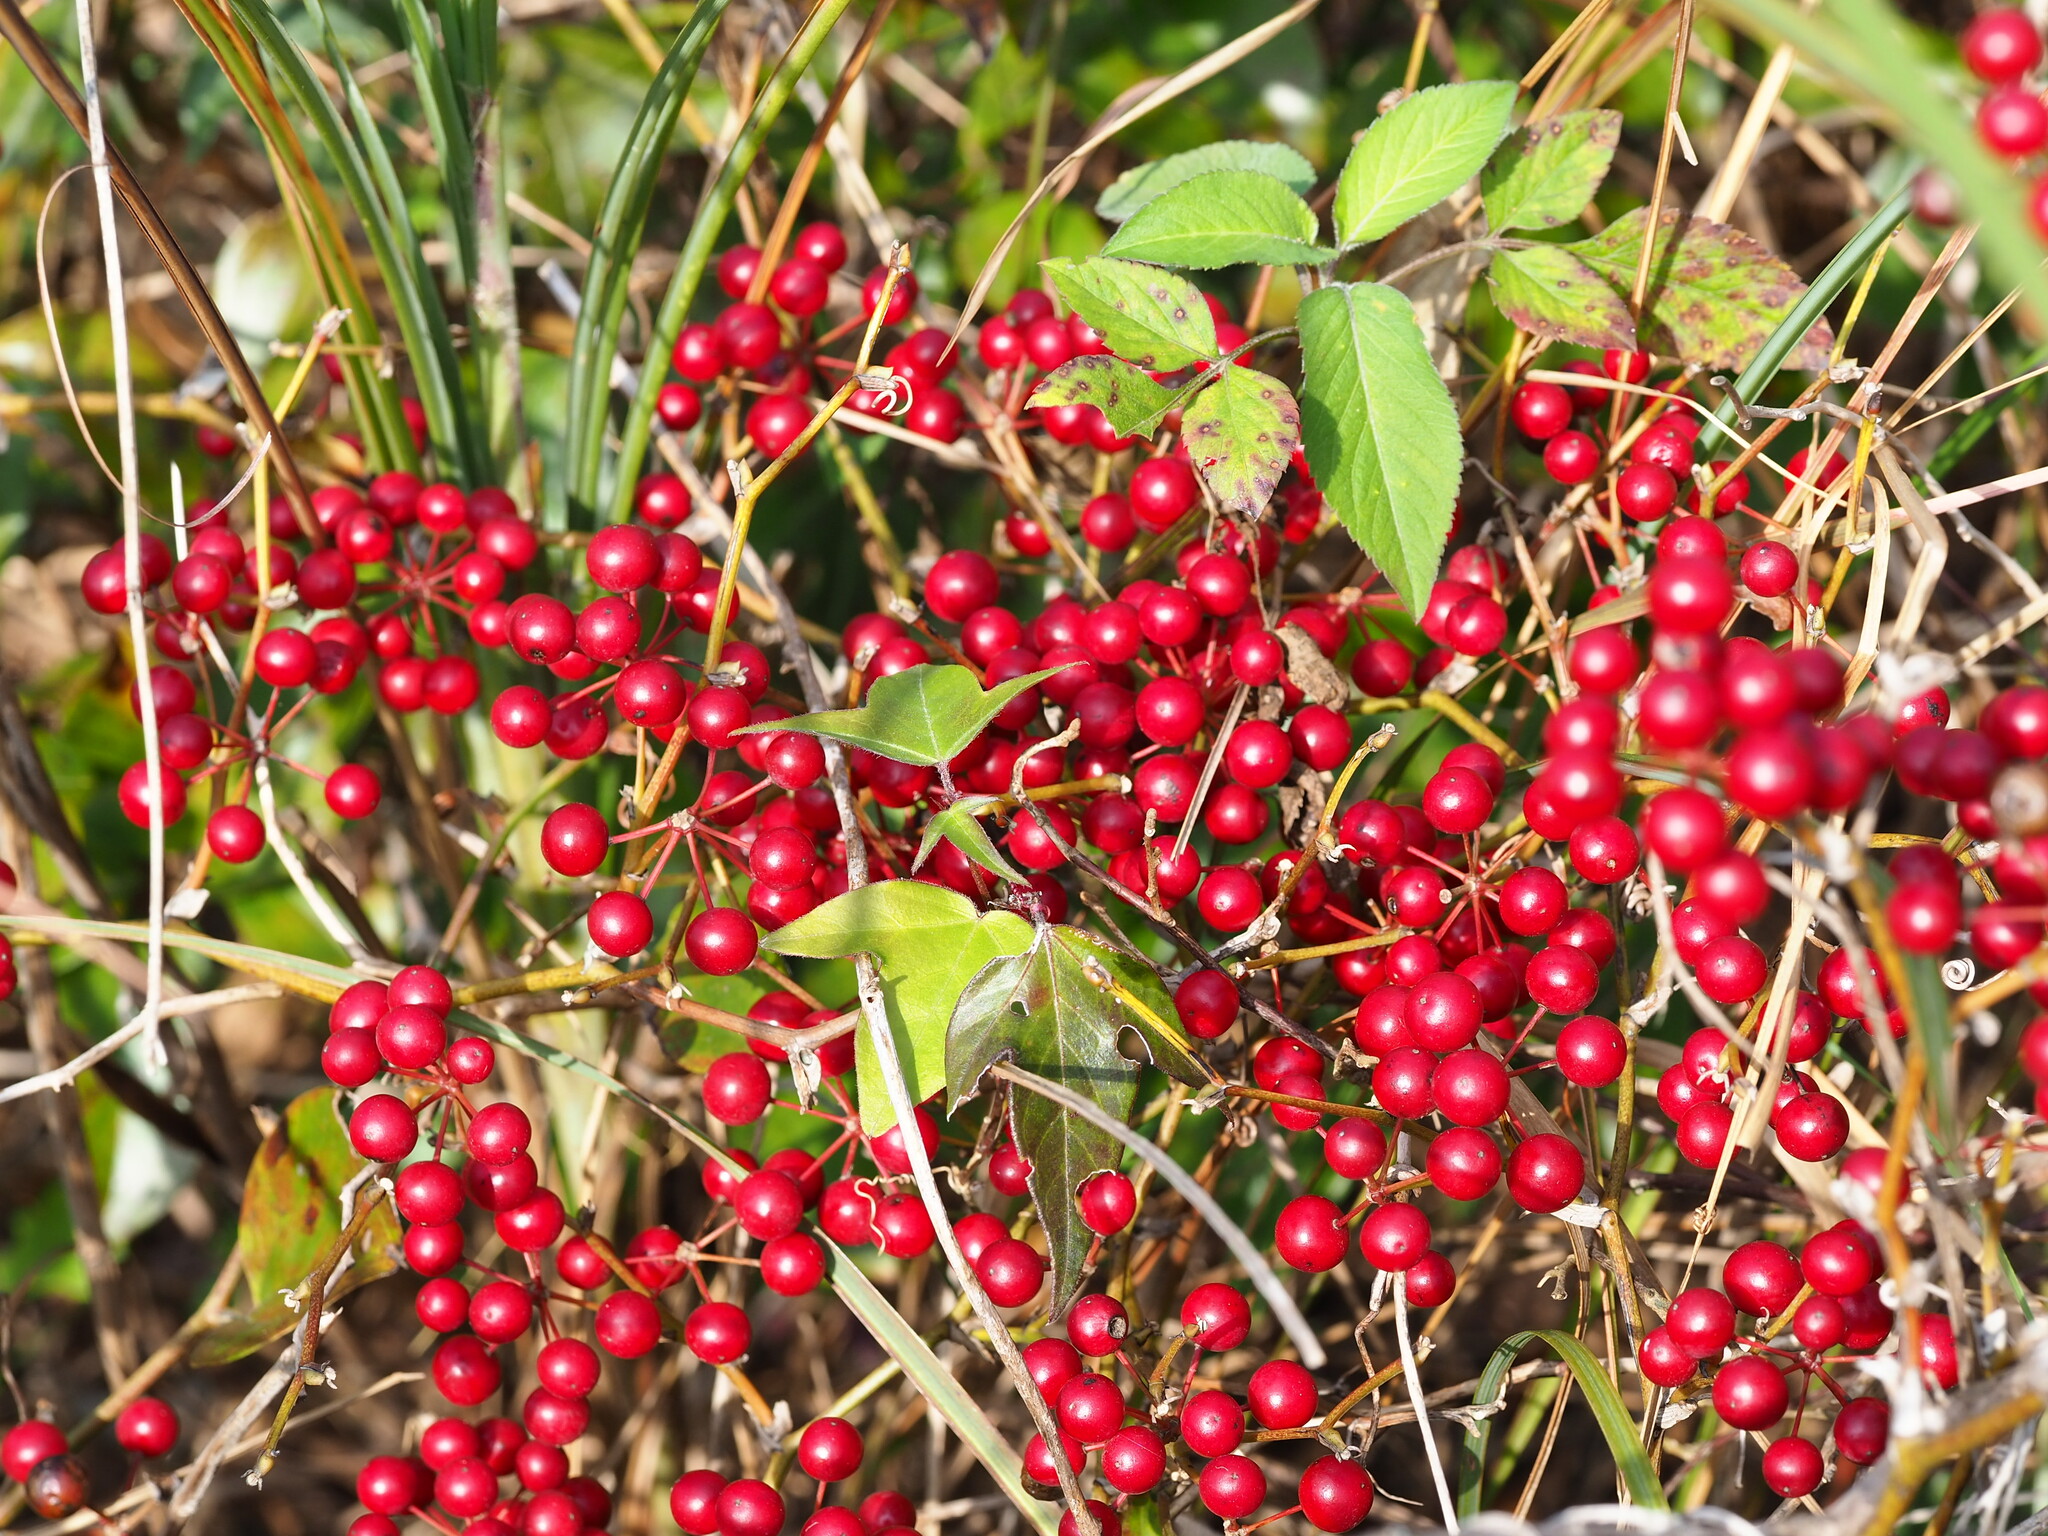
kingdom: Plantae
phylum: Tracheophyta
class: Liliopsida
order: Liliales
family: Smilacaceae
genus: Smilax
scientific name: Smilax china
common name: Chinaroot
